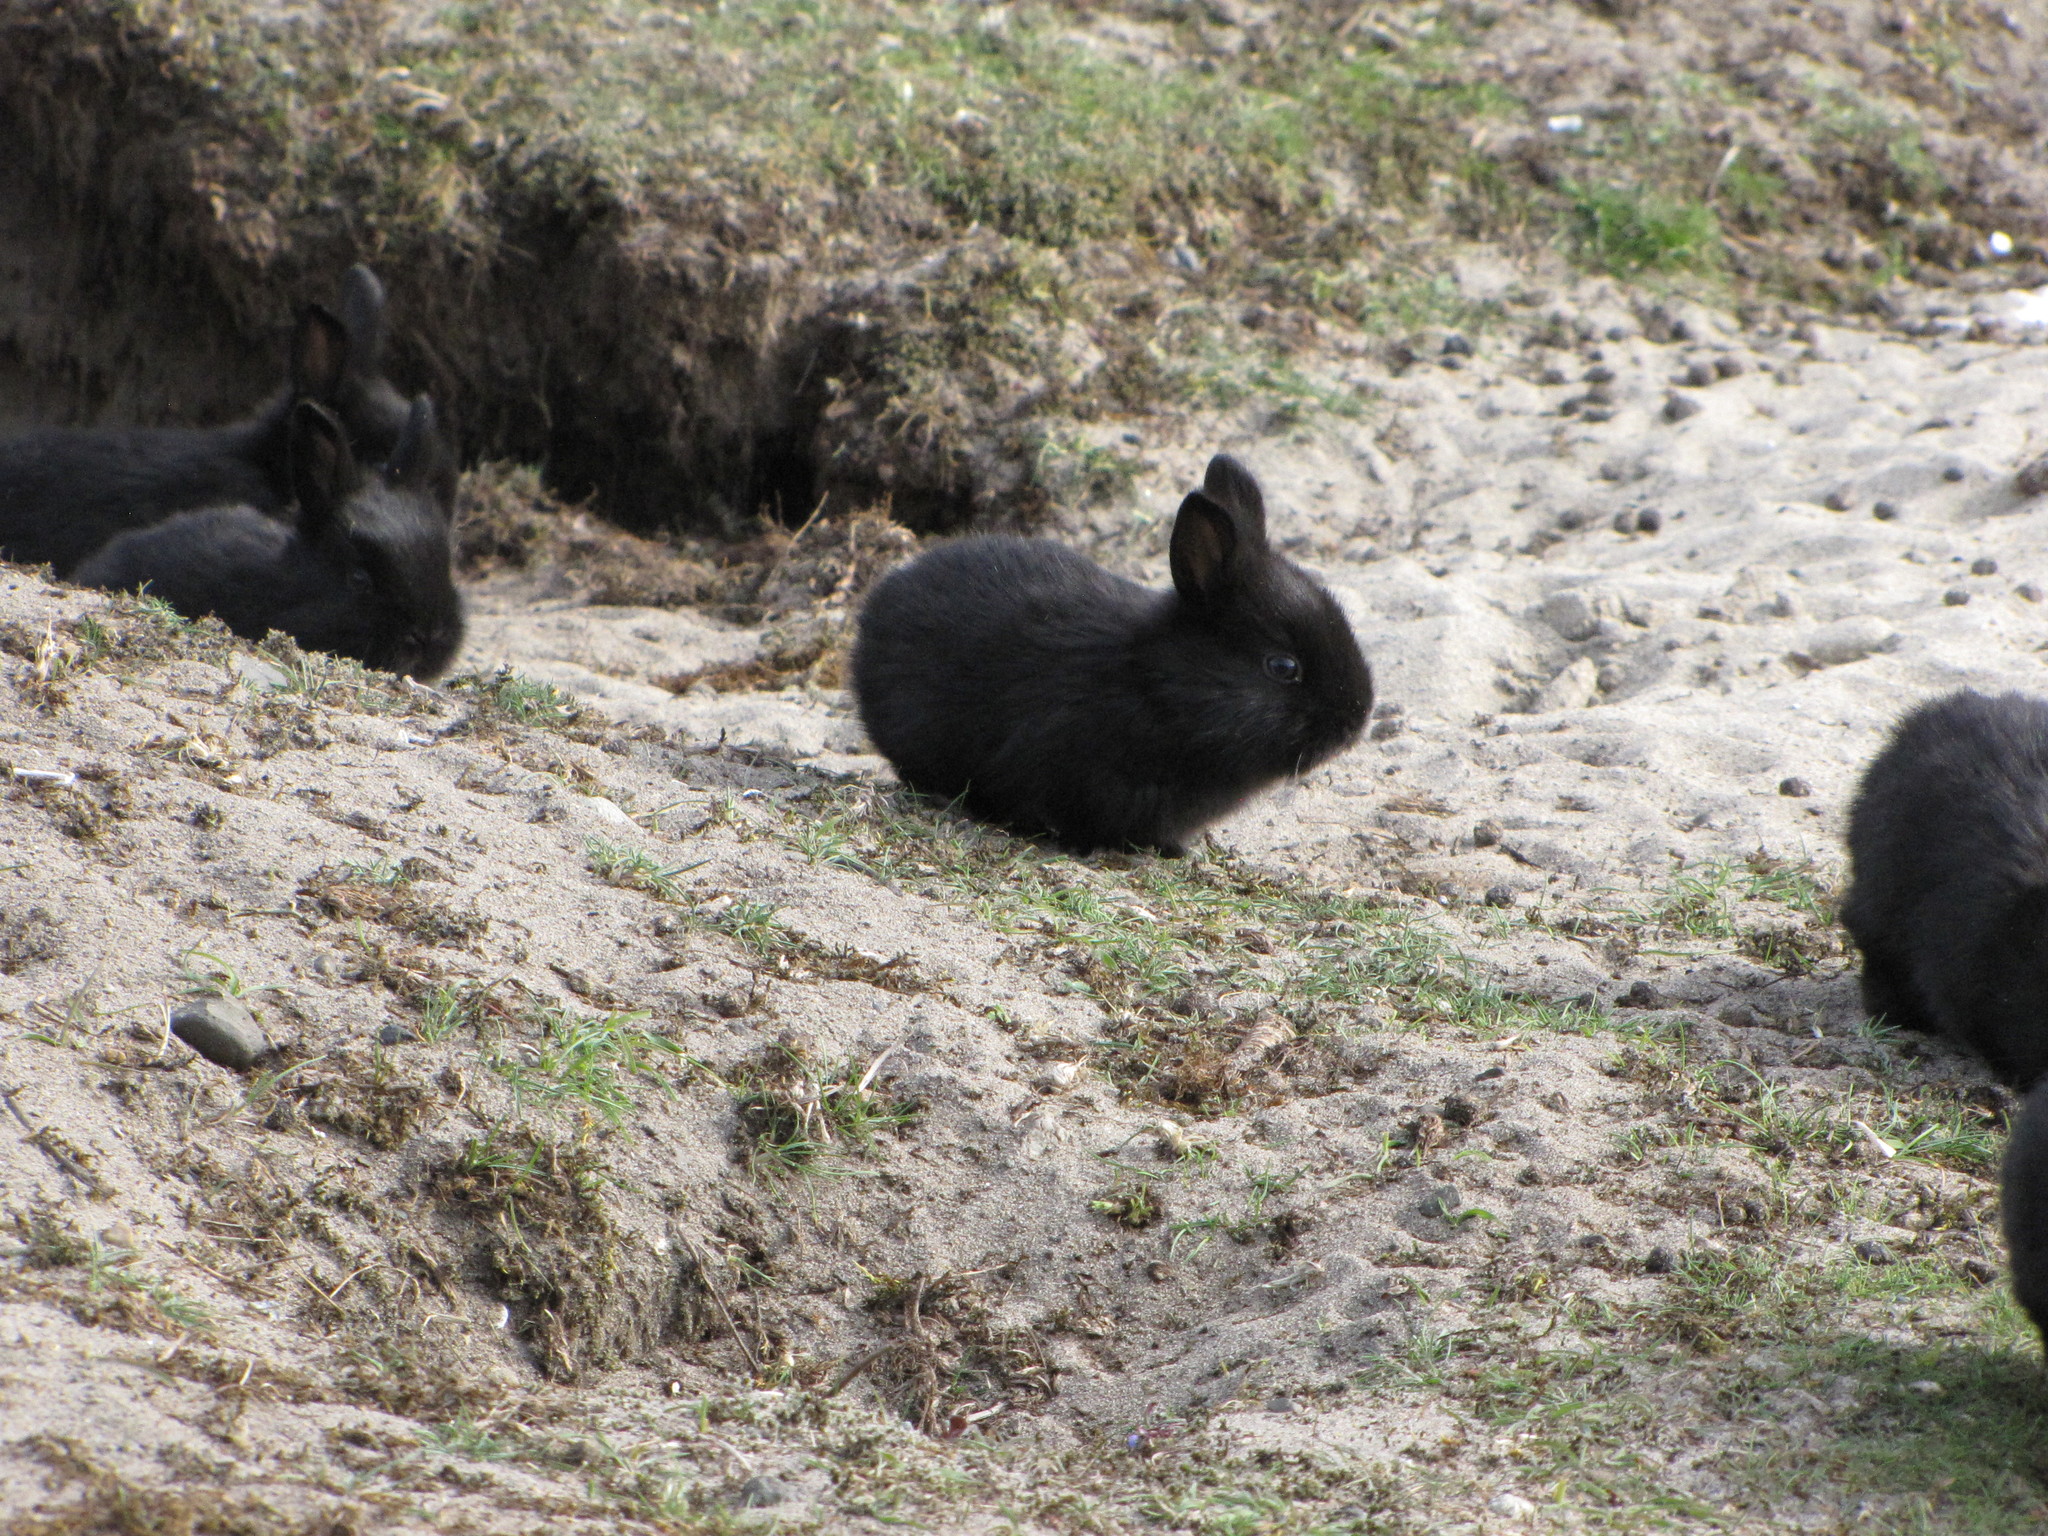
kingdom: Animalia
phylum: Chordata
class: Mammalia
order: Lagomorpha
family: Leporidae
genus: Oryctolagus
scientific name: Oryctolagus cuniculus
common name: European rabbit
